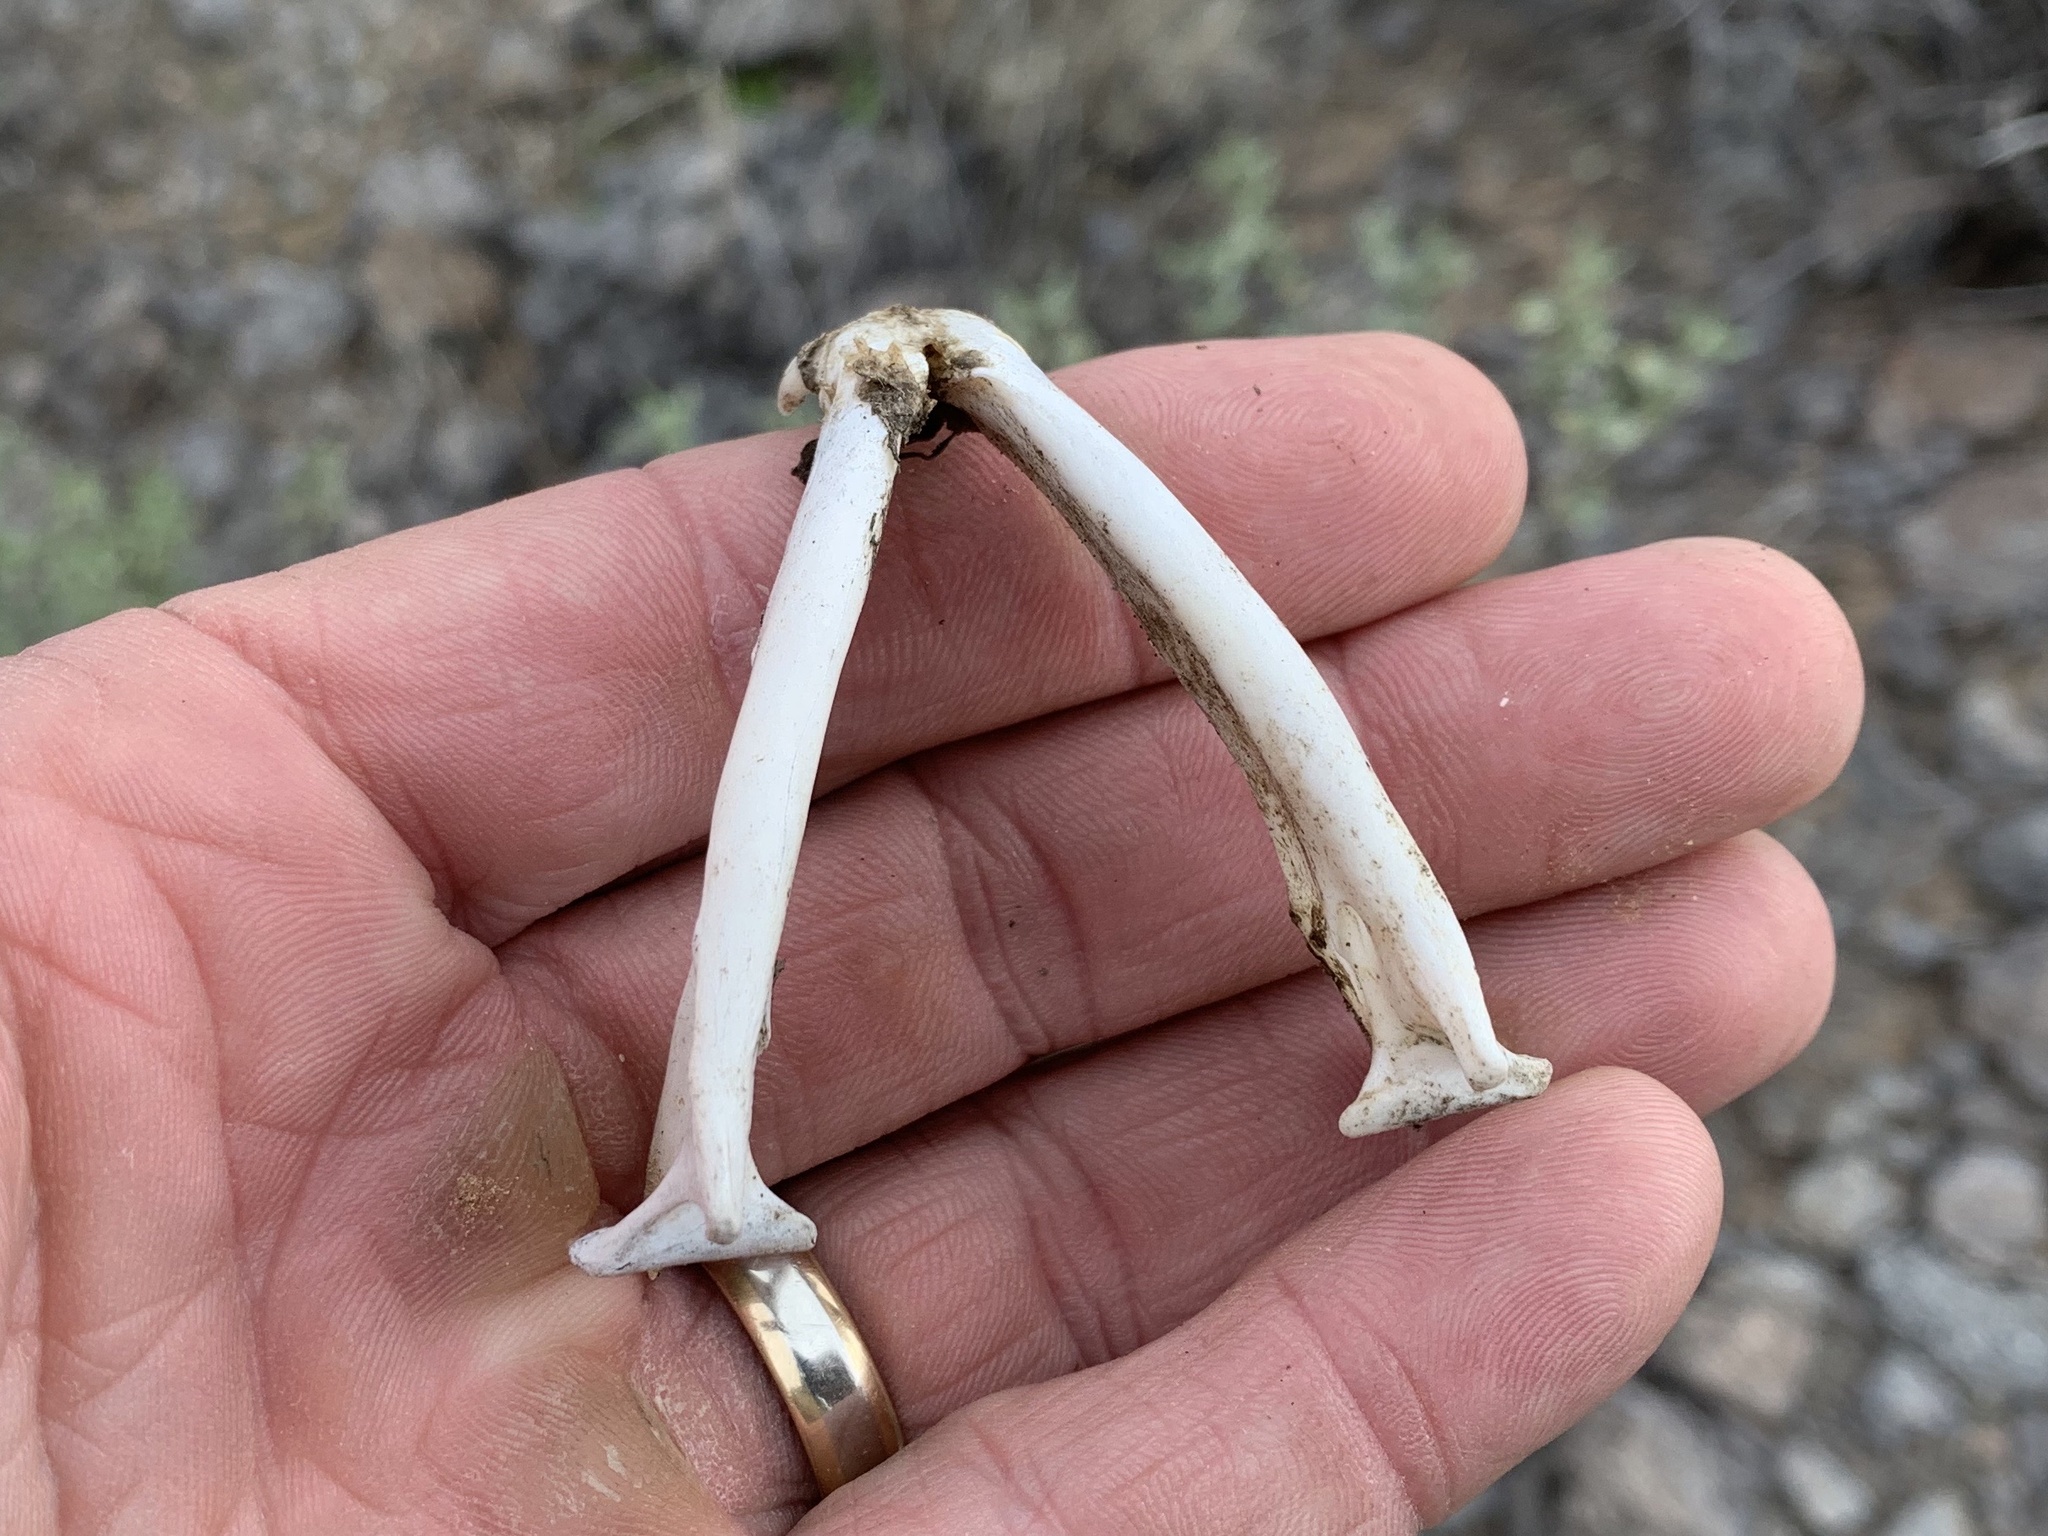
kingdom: Animalia
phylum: Chordata
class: Mammalia
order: Carnivora
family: Felidae
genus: Felis
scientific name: Felis catus
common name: Domestic cat
